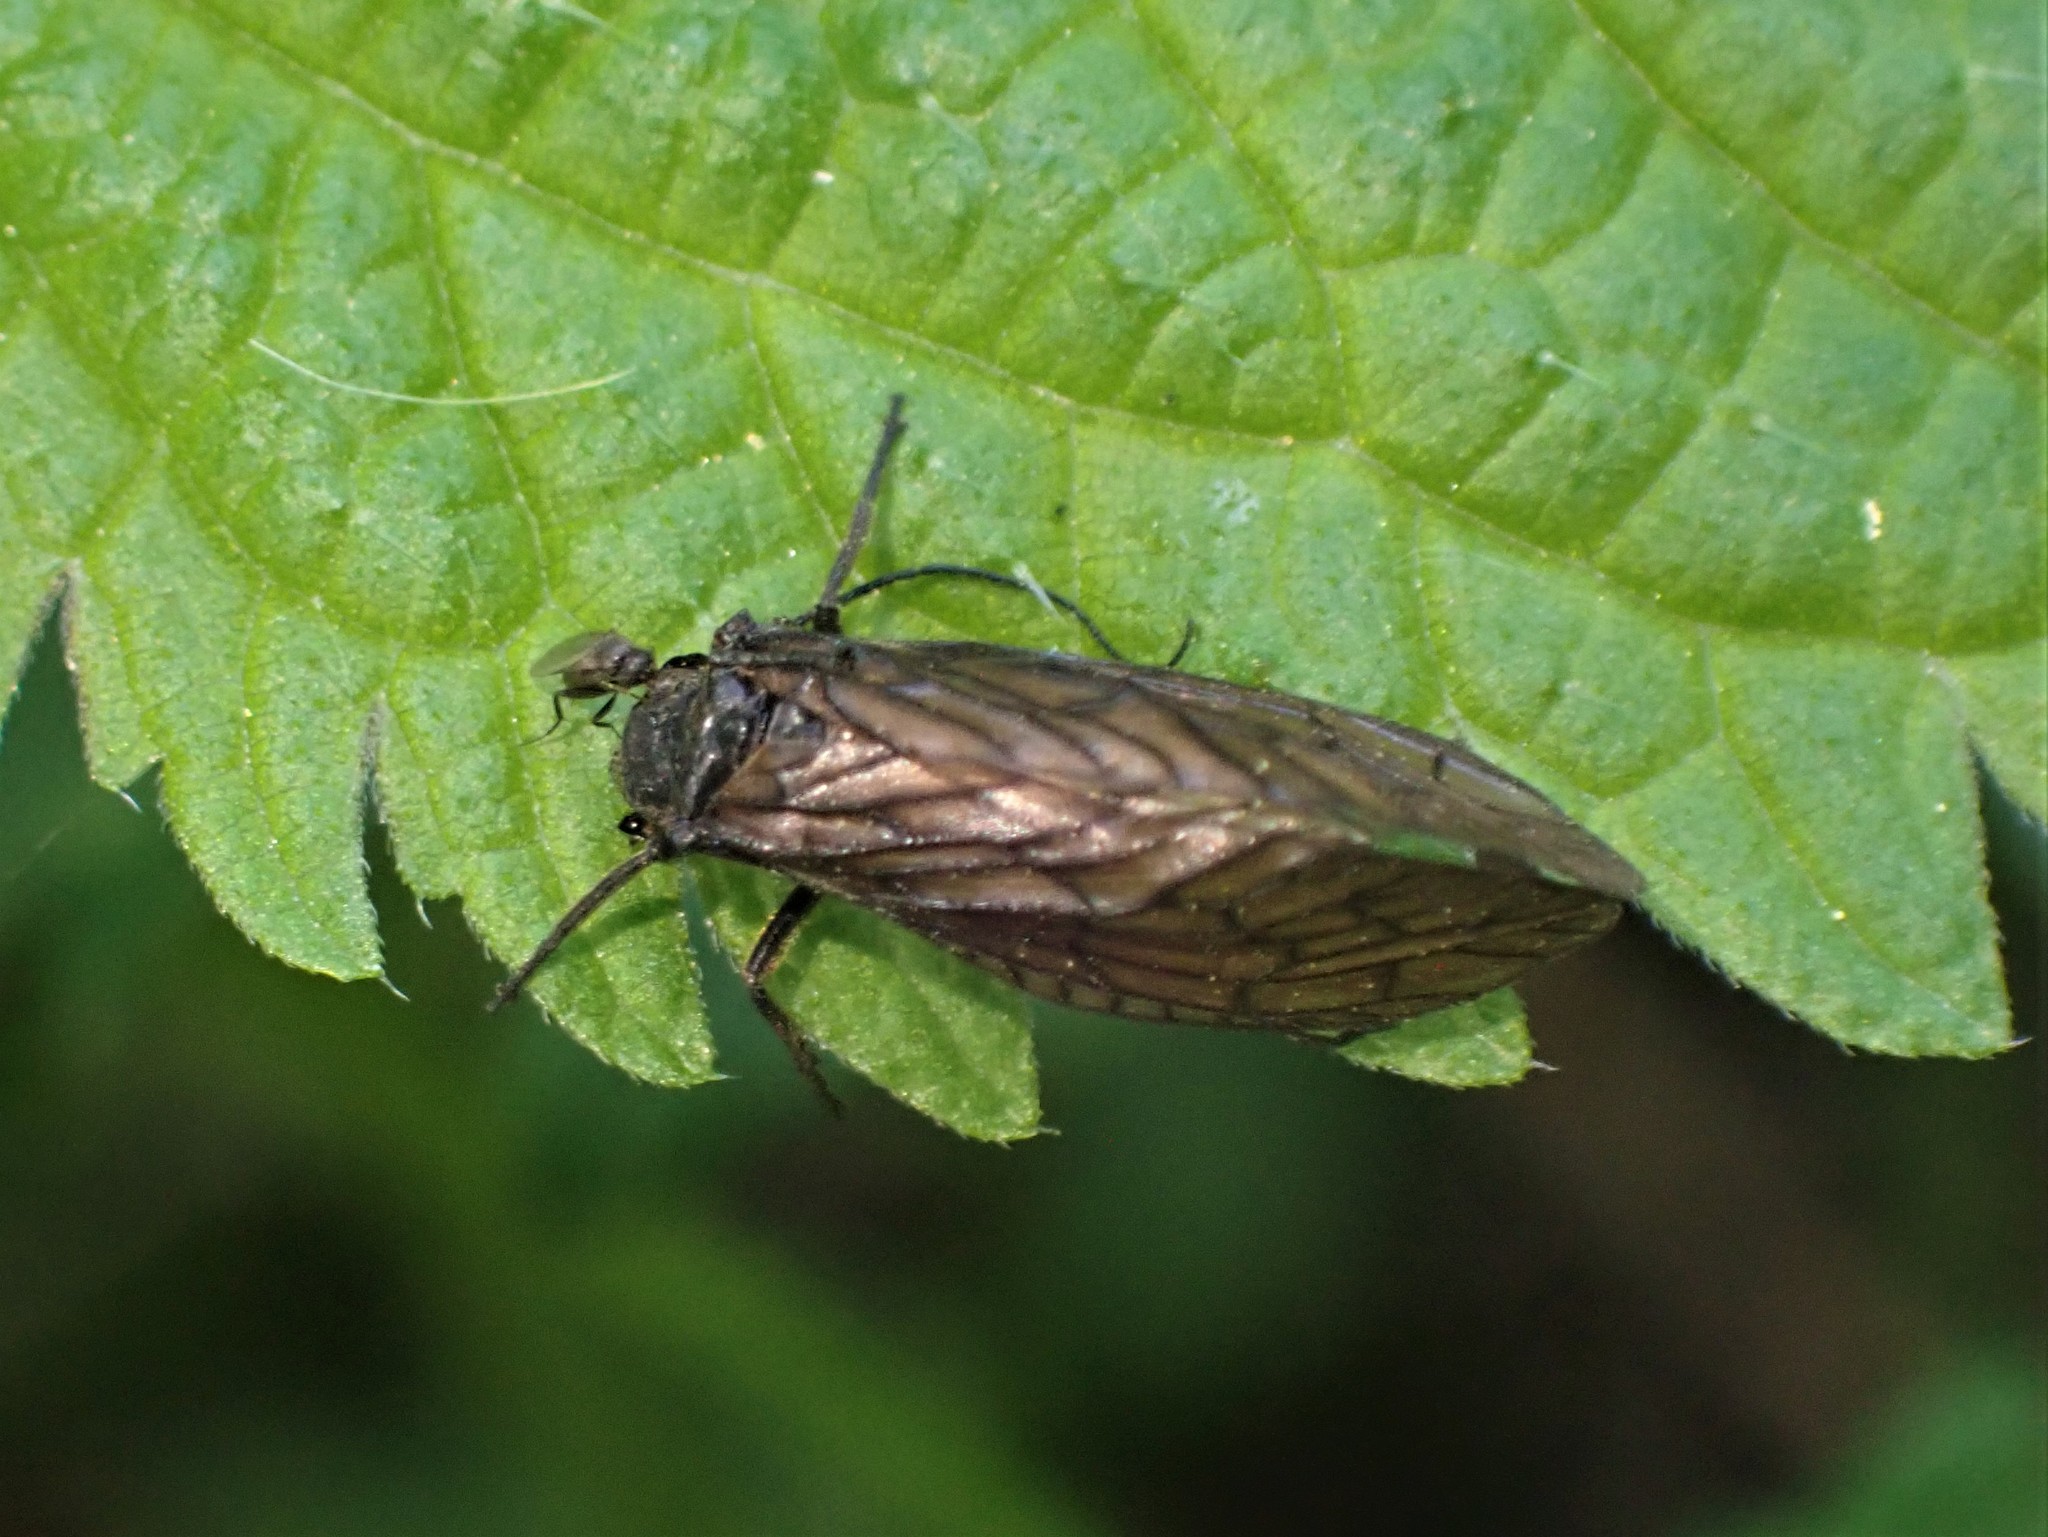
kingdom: Animalia
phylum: Arthropoda
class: Insecta
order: Megaloptera
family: Sialidae
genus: Sialis
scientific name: Sialis
